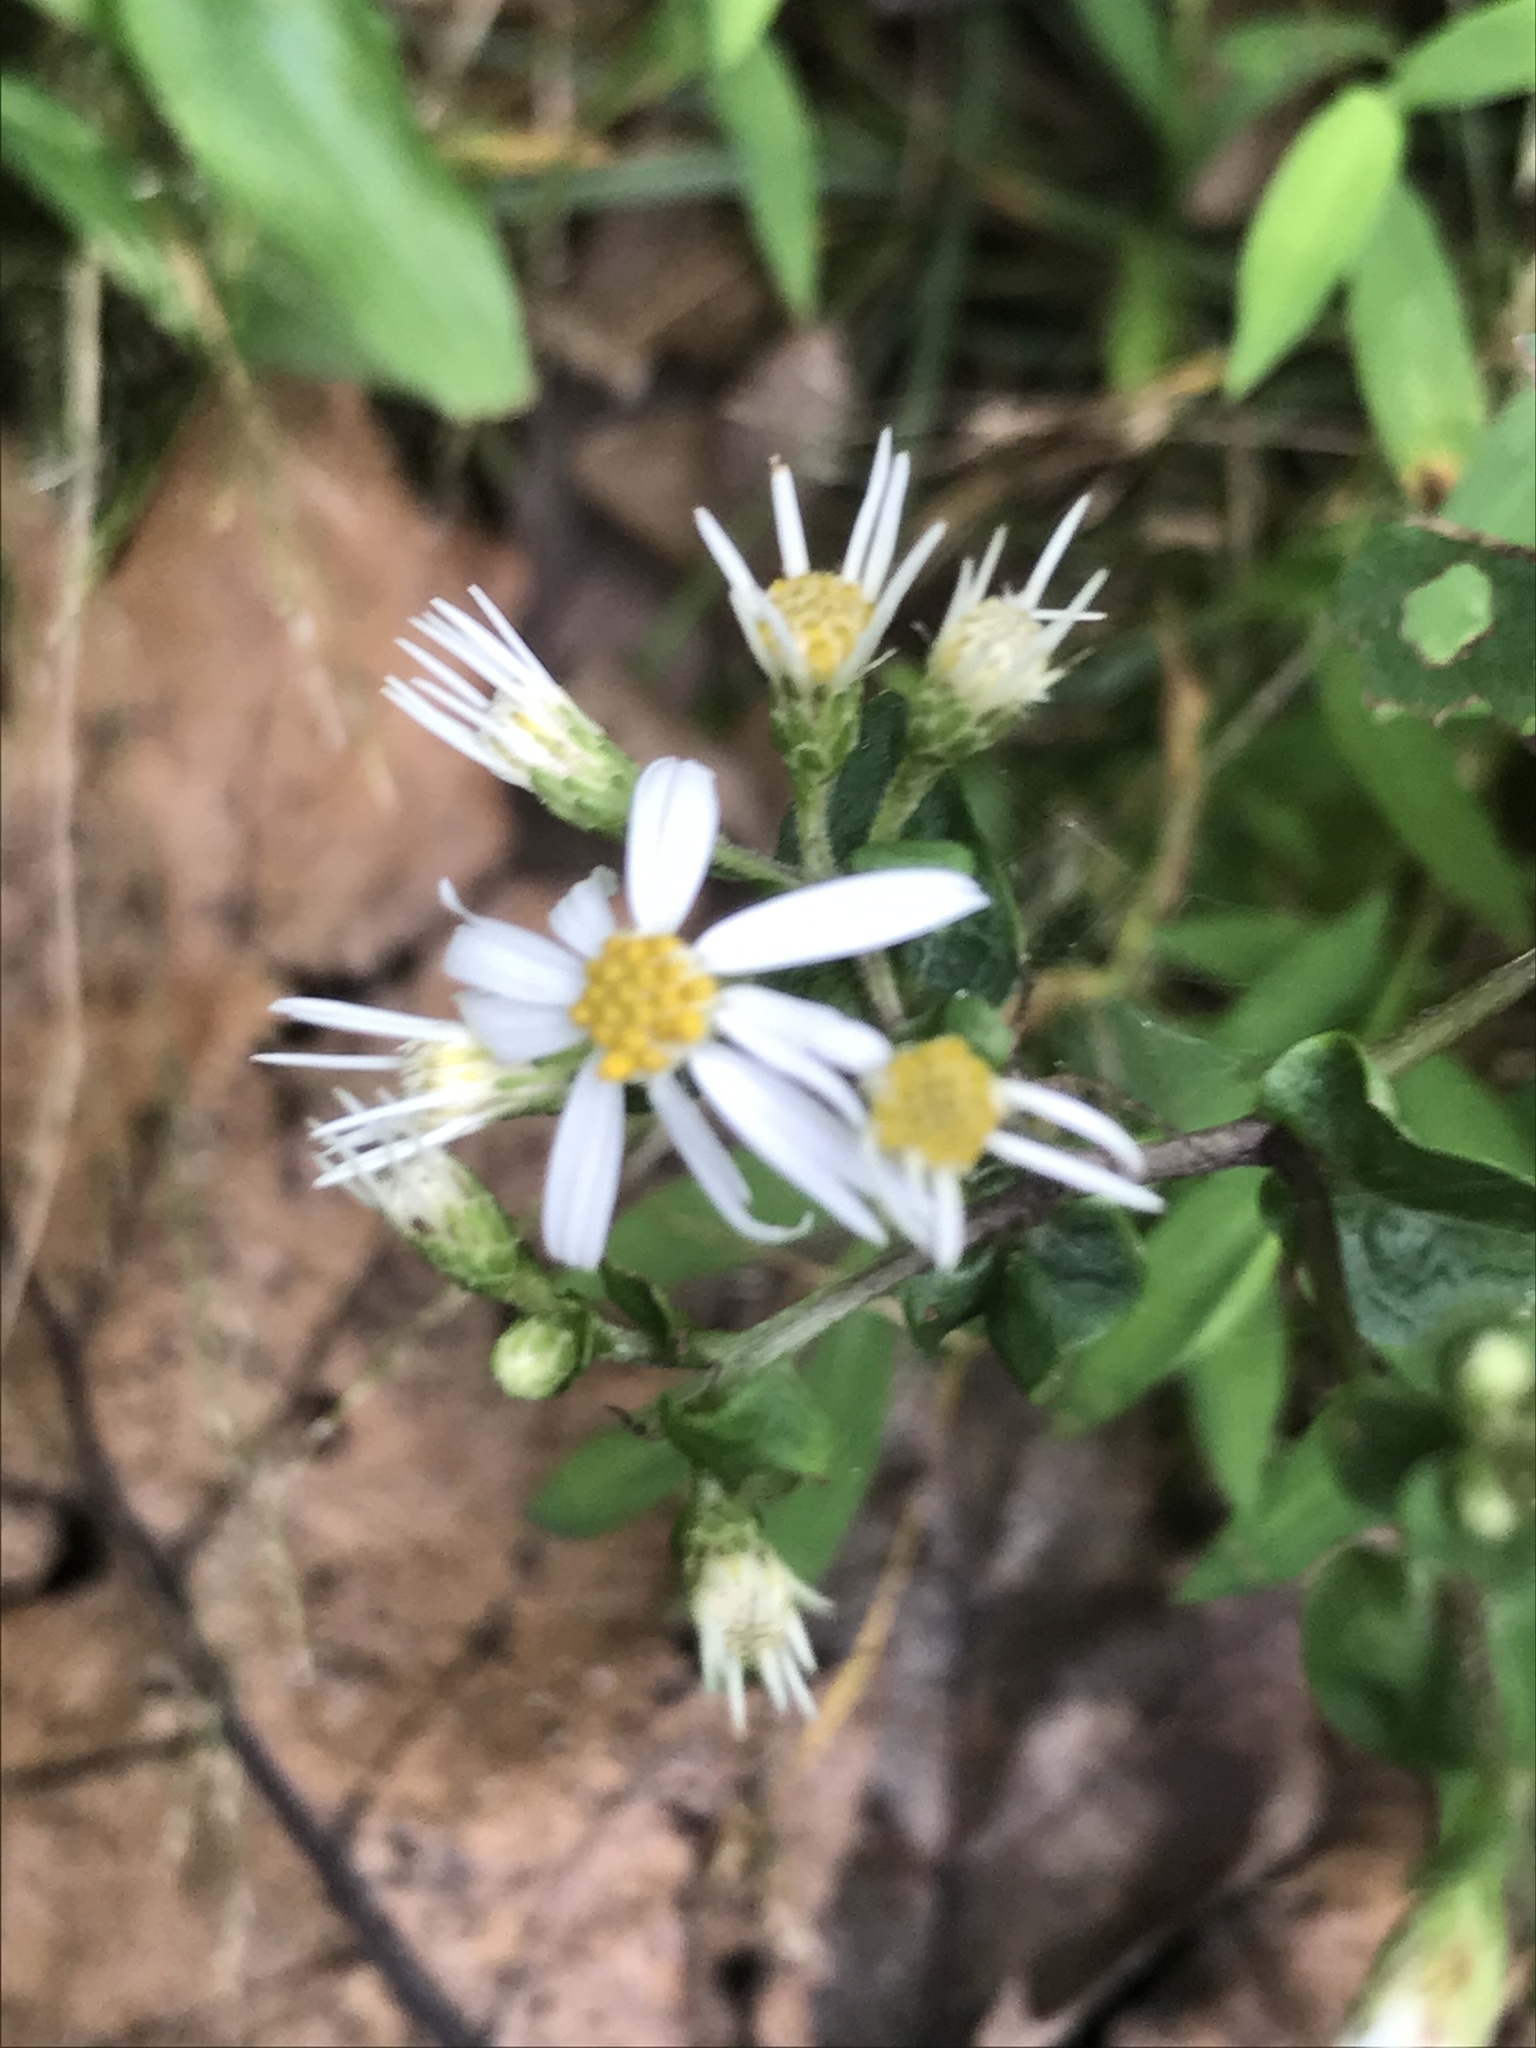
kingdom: Plantae
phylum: Tracheophyta
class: Magnoliopsida
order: Asterales
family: Asteraceae
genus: Eurybia
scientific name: Eurybia divaricata
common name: White wood aster
